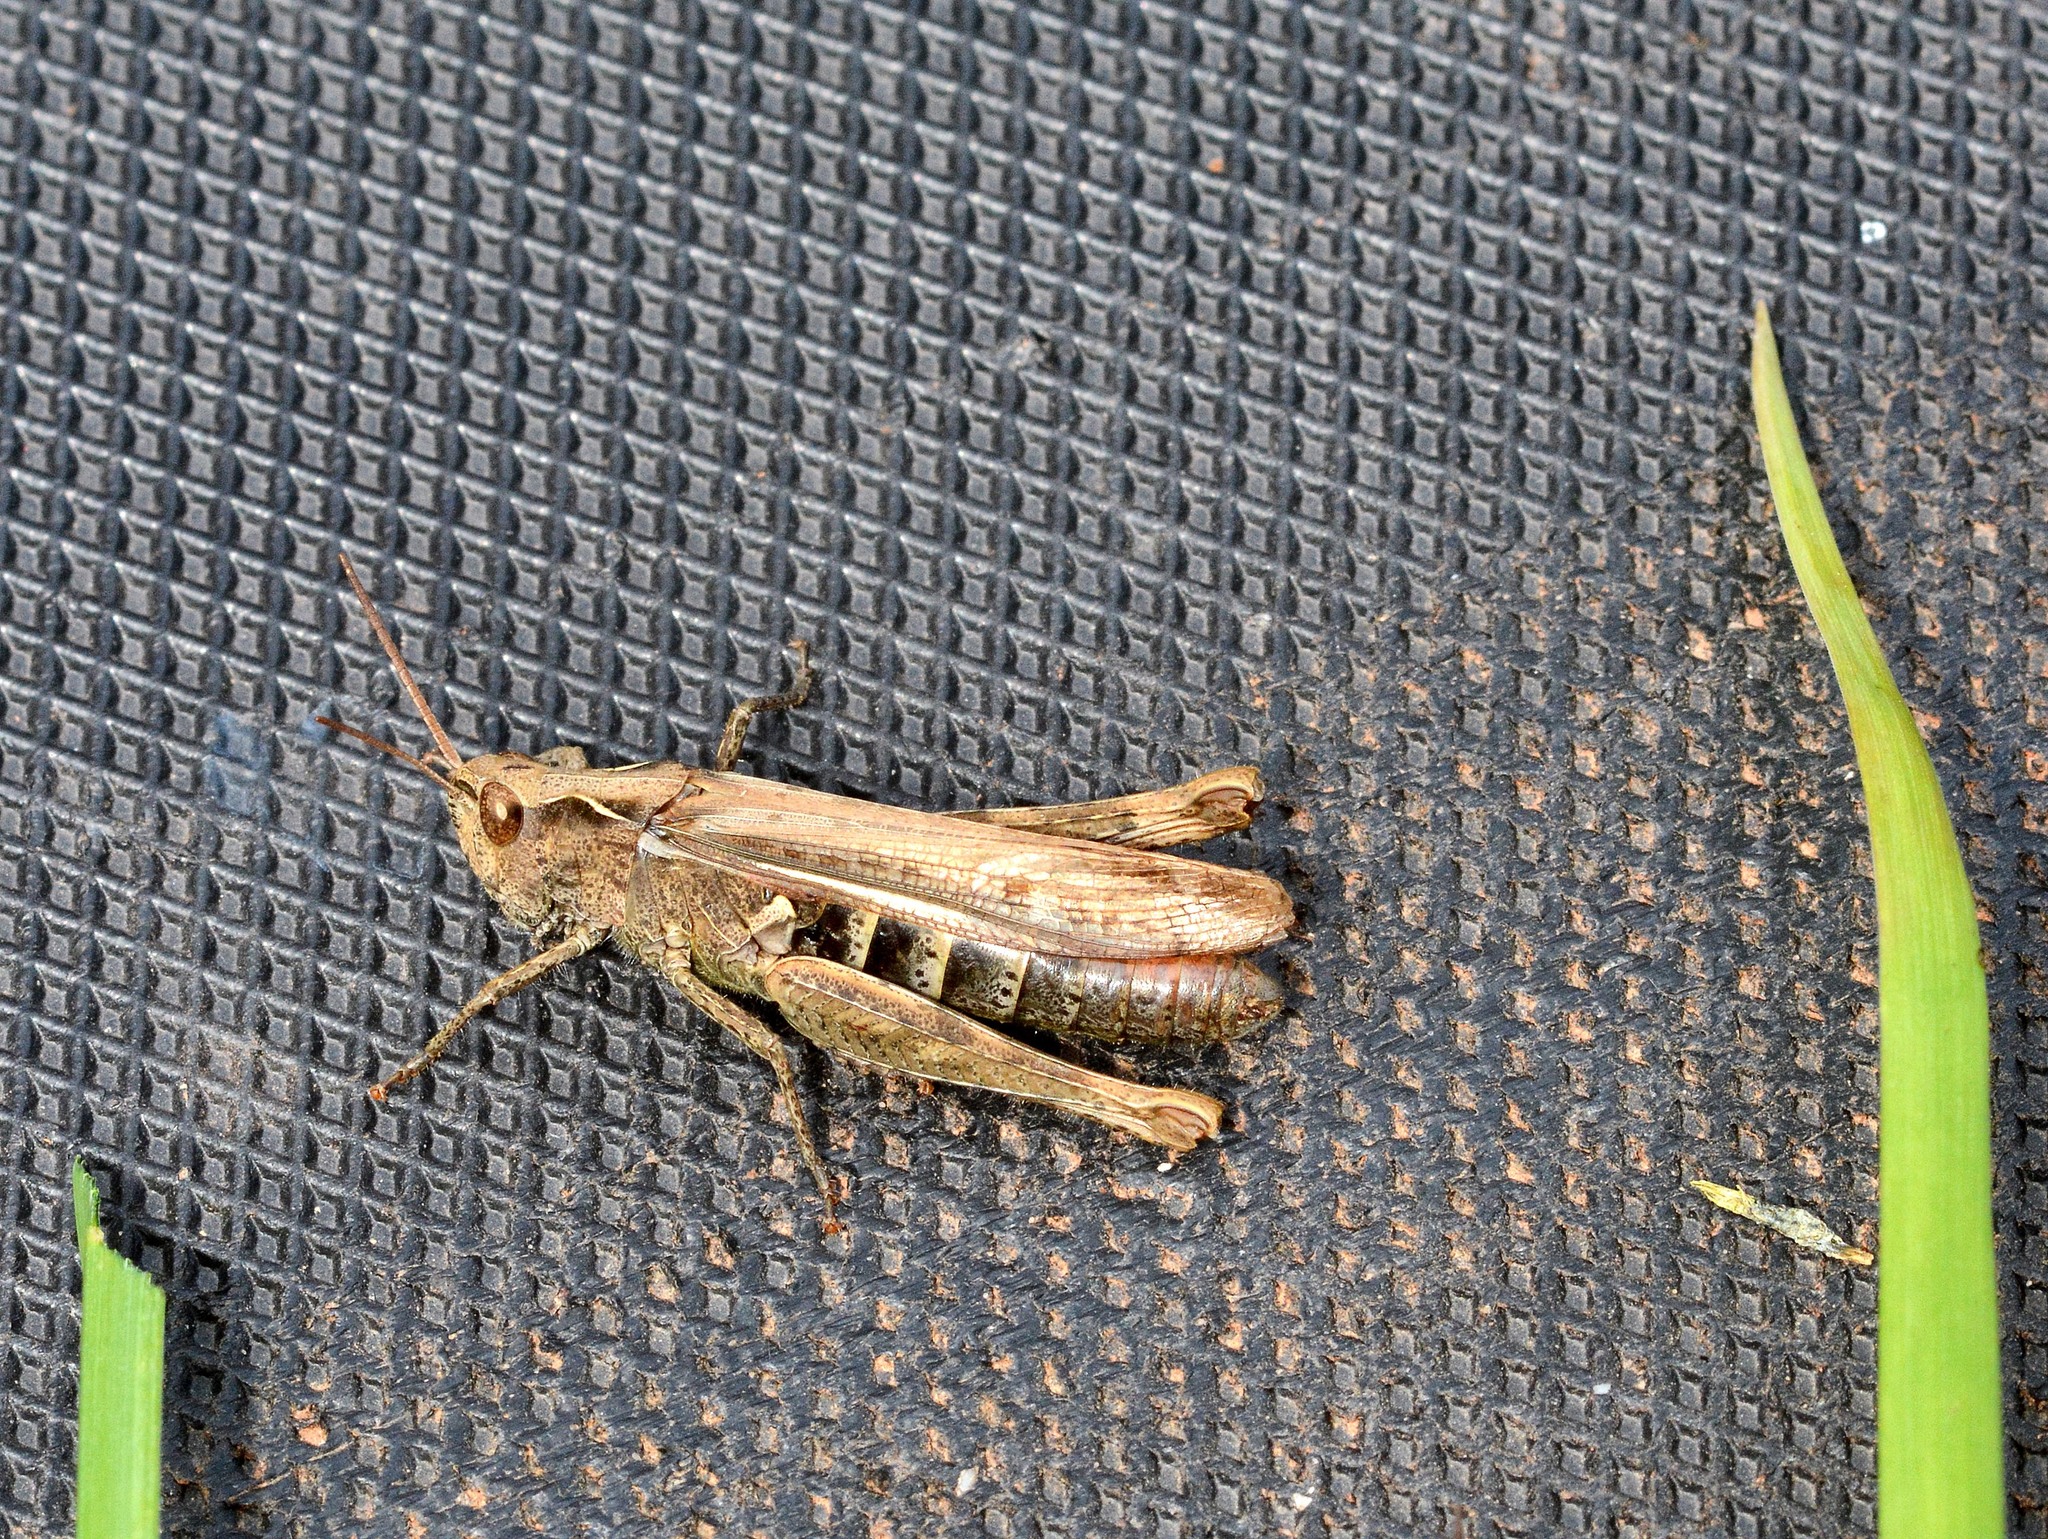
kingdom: Animalia
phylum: Arthropoda
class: Insecta
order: Orthoptera
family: Acrididae
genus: Chorthippus
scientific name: Chorthippus brunneus
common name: Field grasshopper
